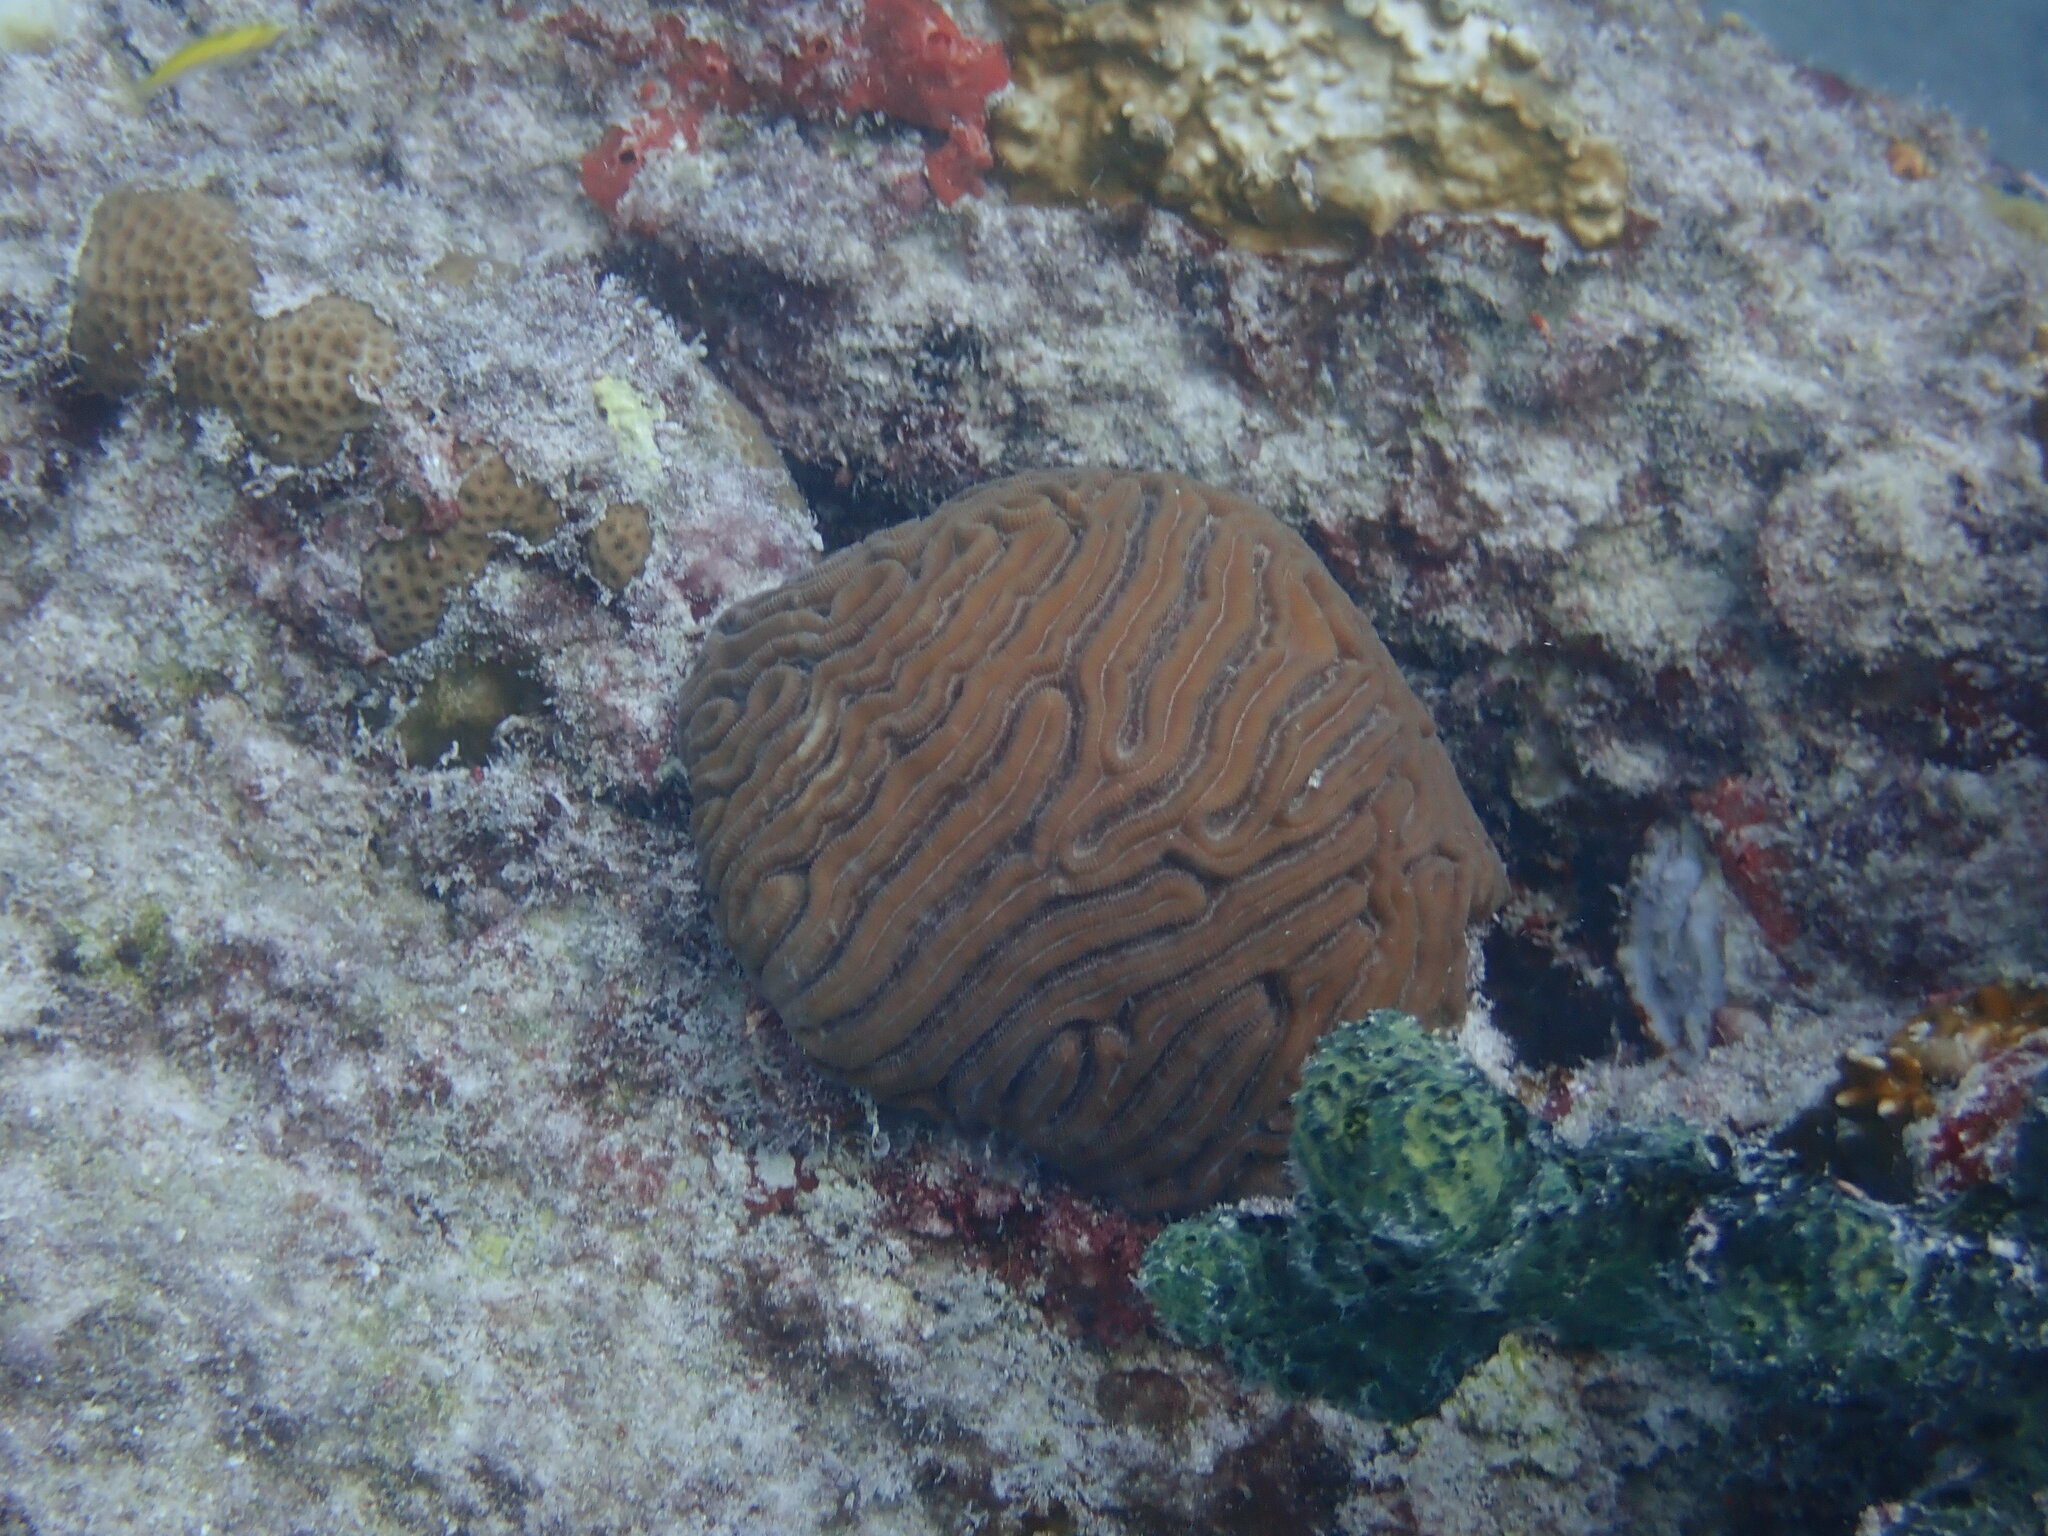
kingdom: Animalia
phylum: Cnidaria
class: Anthozoa
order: Scleractinia
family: Faviidae
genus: Diploria
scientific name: Diploria labyrinthiformis
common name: Grooved brain coral
